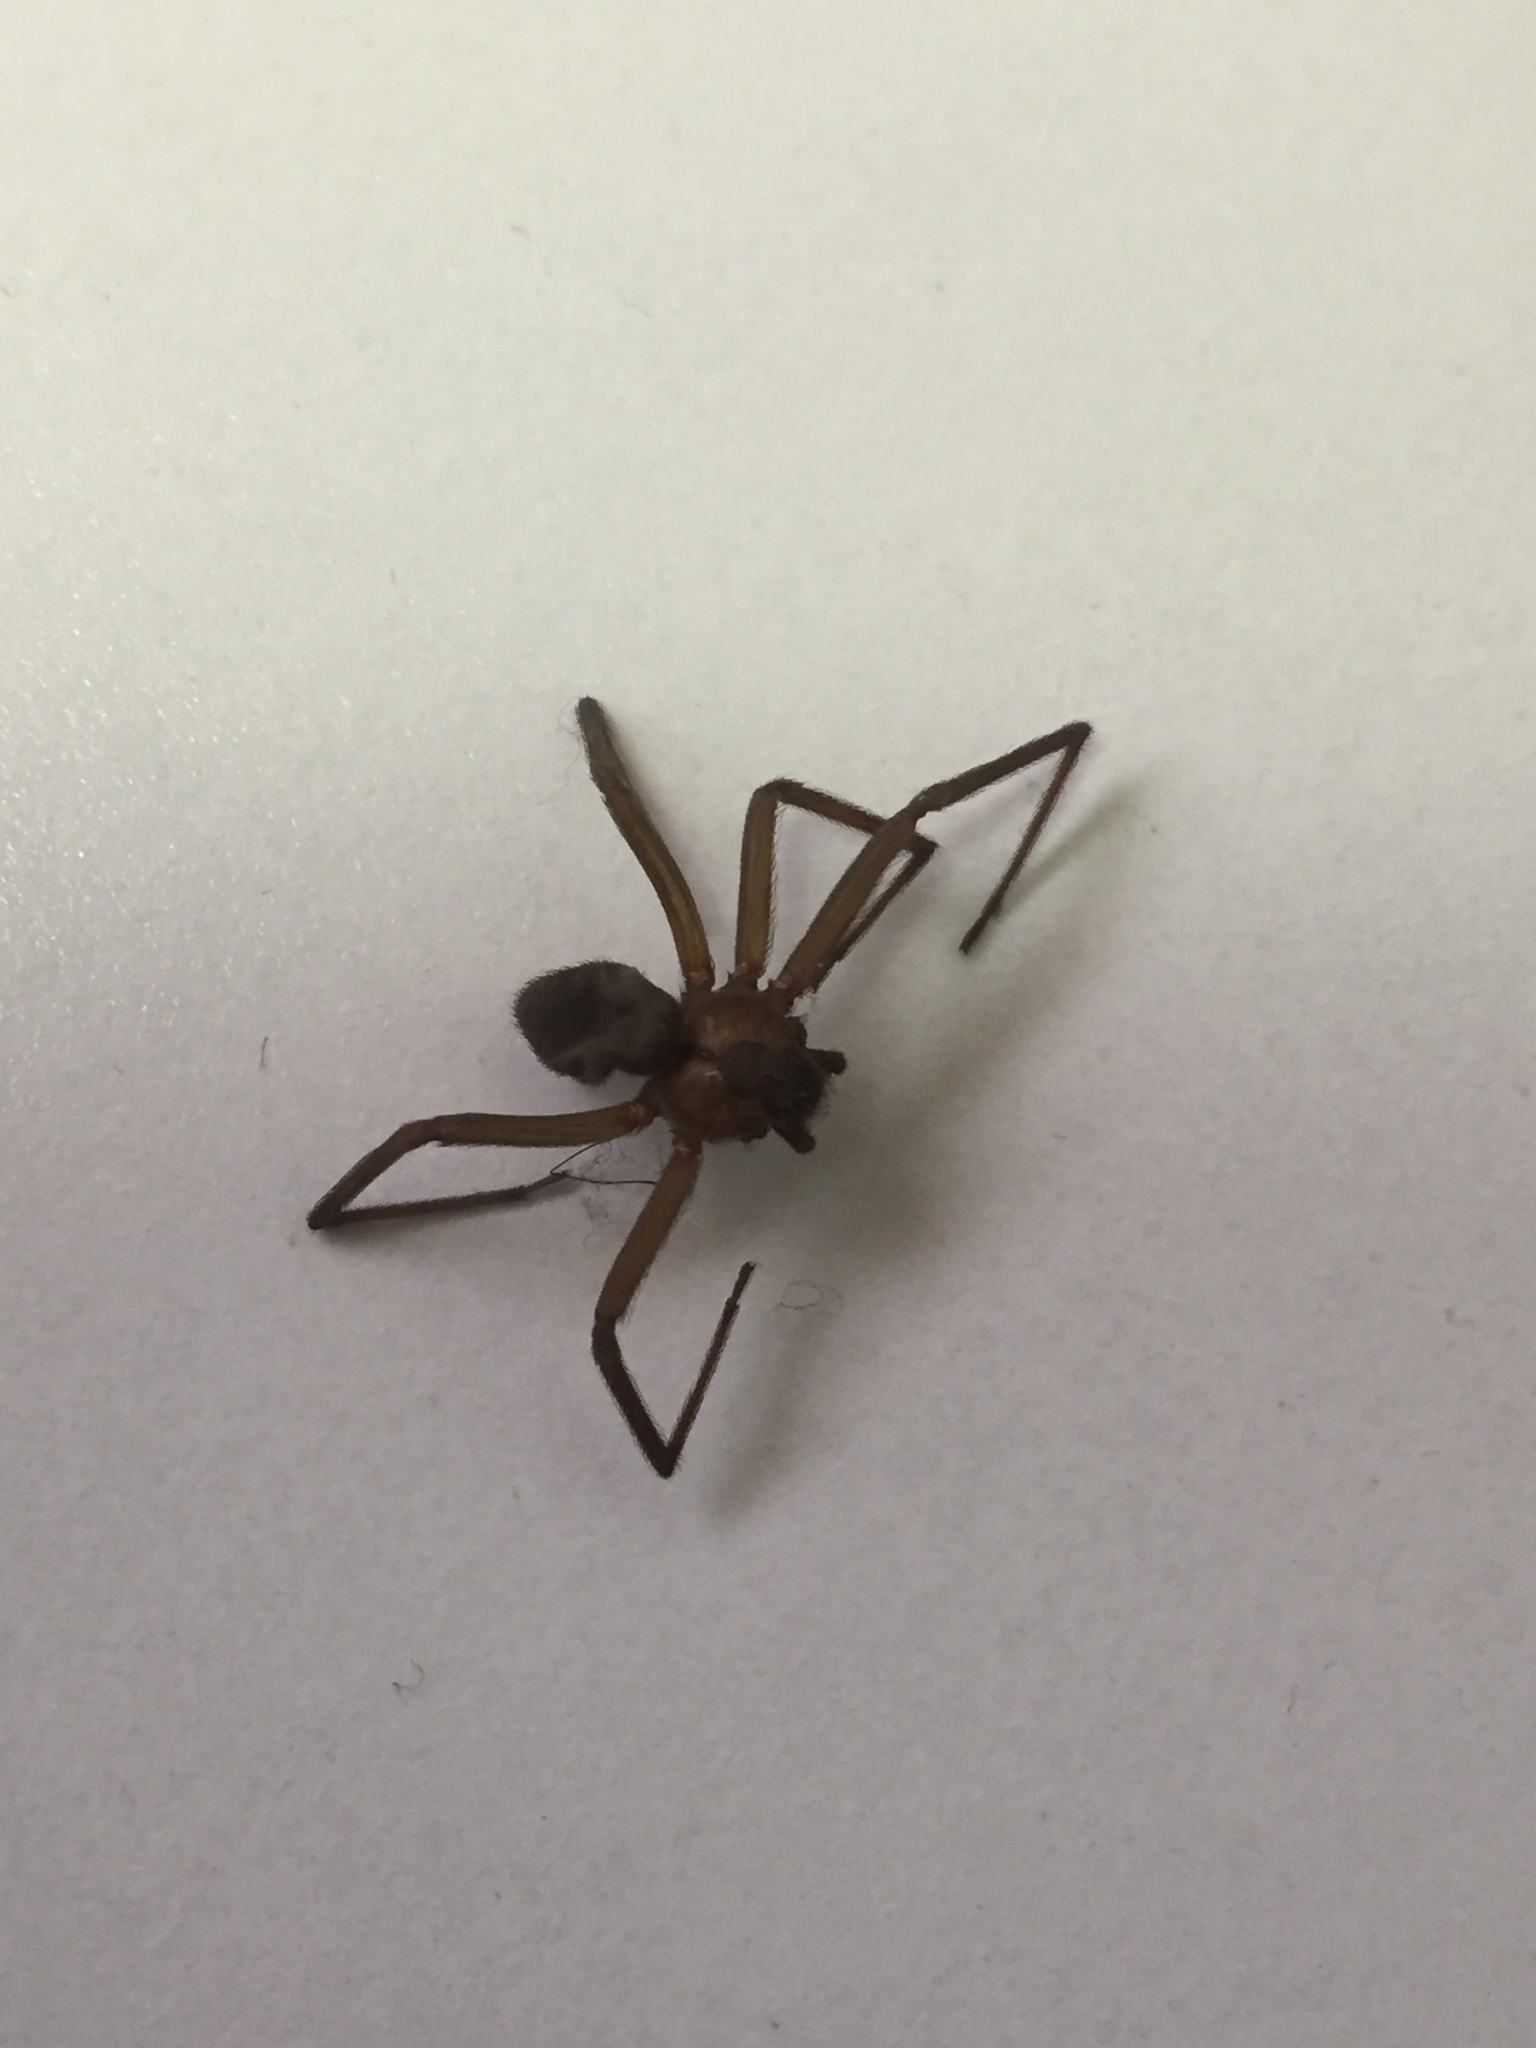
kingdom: Animalia
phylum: Arthropoda
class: Arachnida
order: Araneae
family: Sicariidae
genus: Loxosceles
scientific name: Loxosceles reclusa
